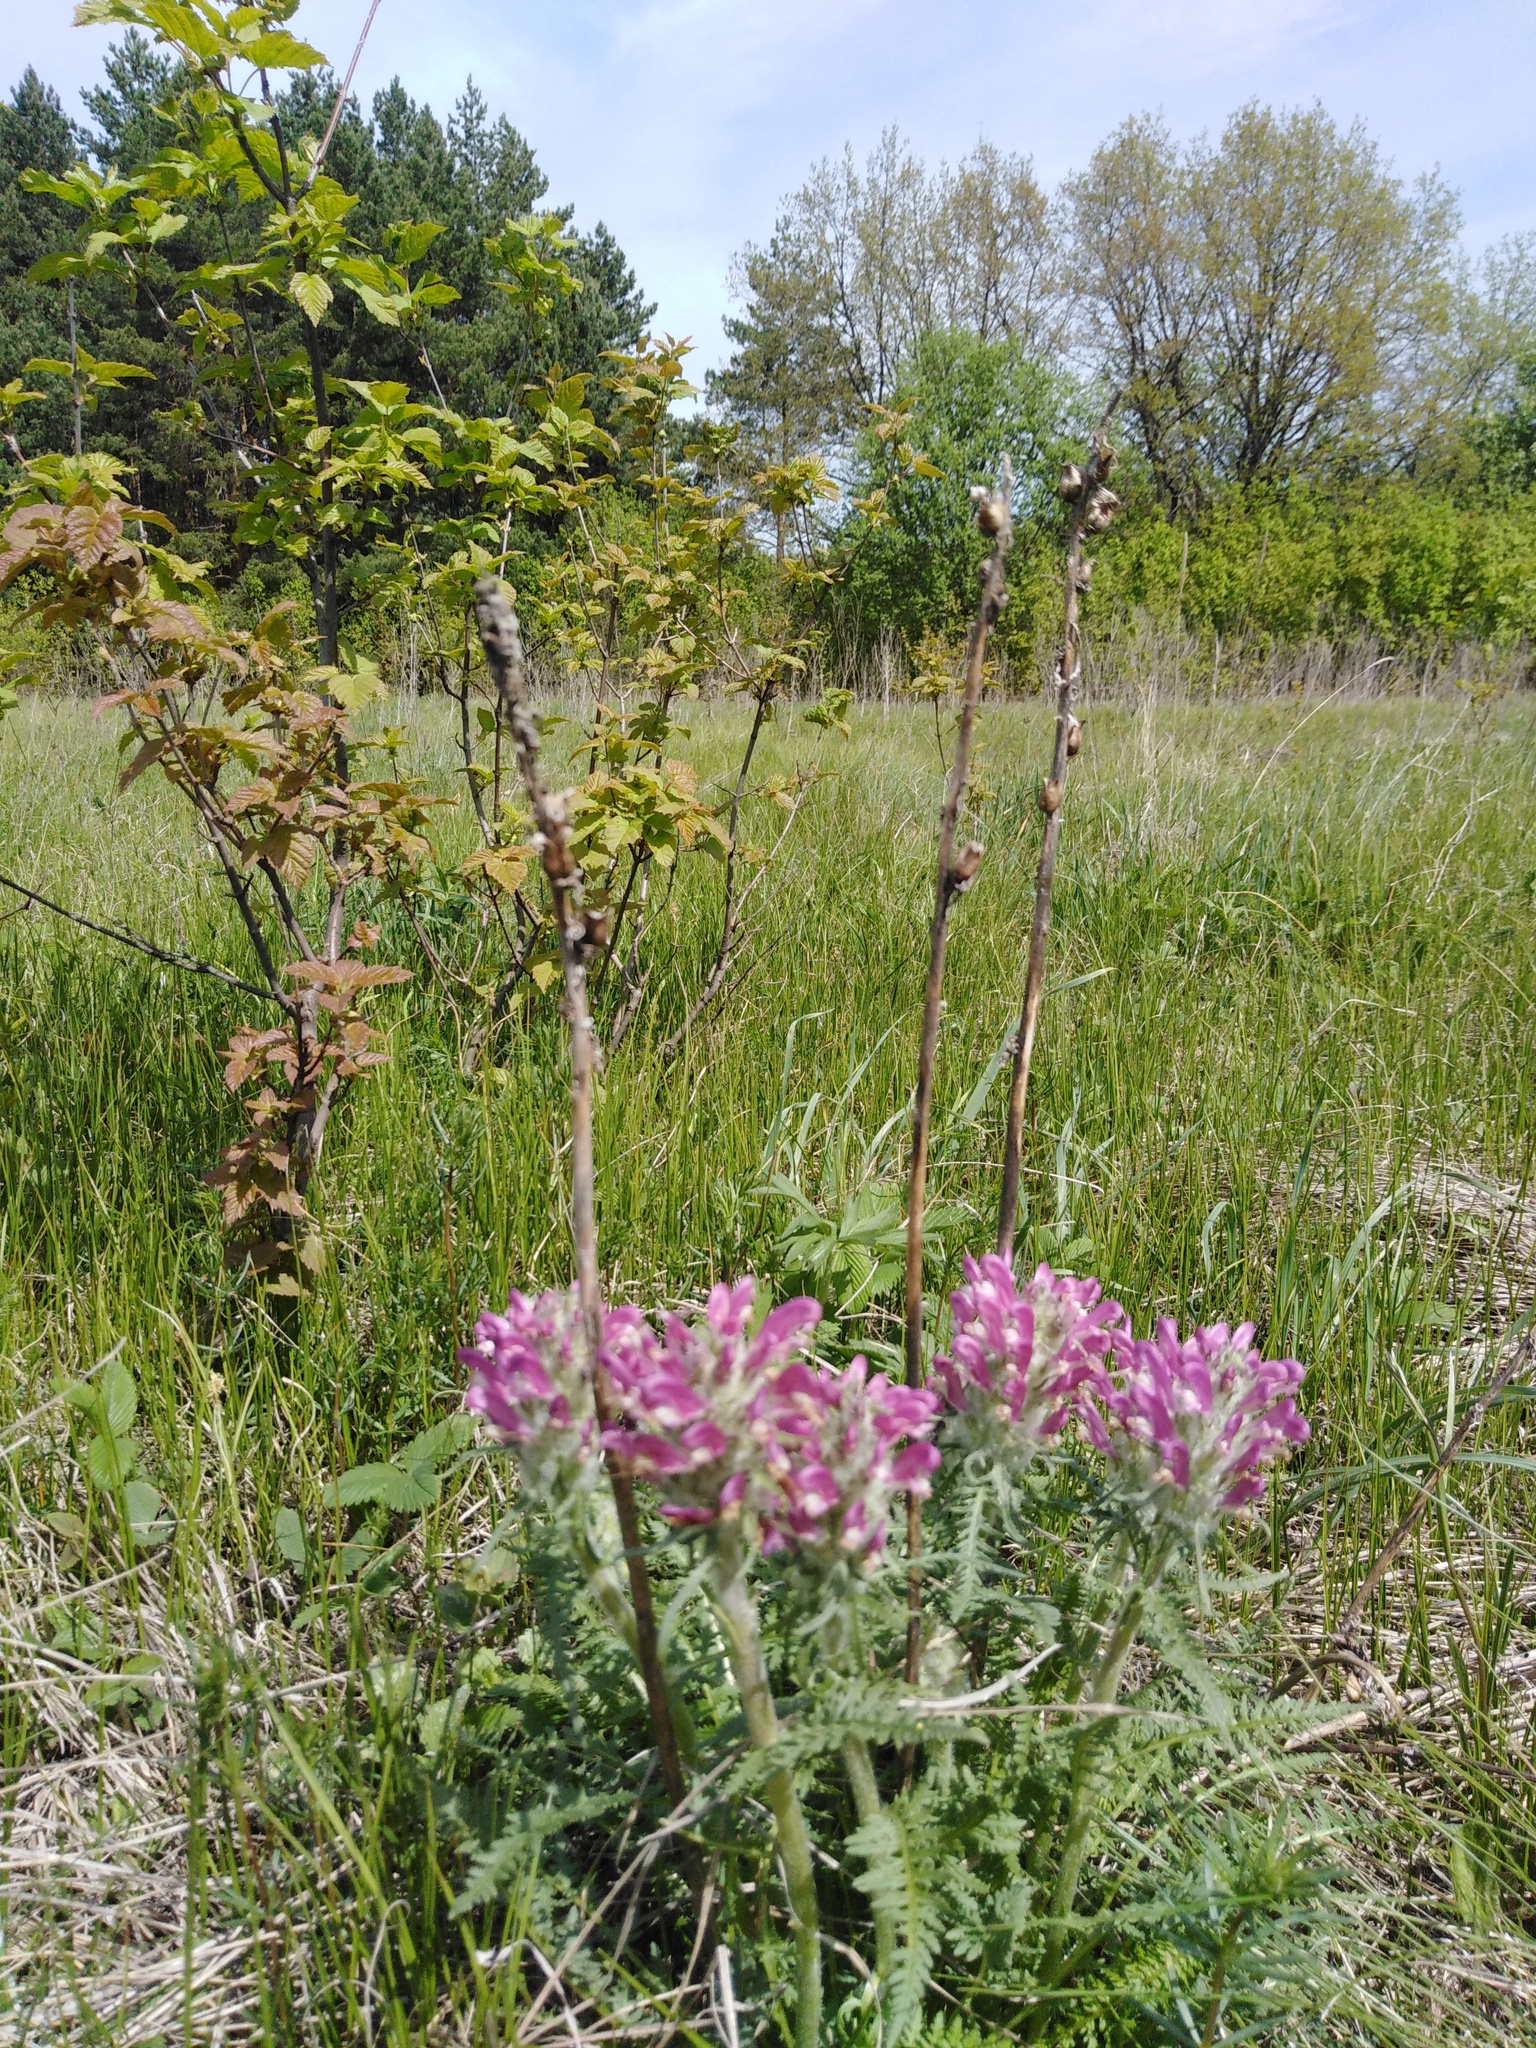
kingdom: Plantae
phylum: Tracheophyta
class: Magnoliopsida
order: Lamiales
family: Orobanchaceae
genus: Pedicularis
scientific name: Pedicularis dasystachys
